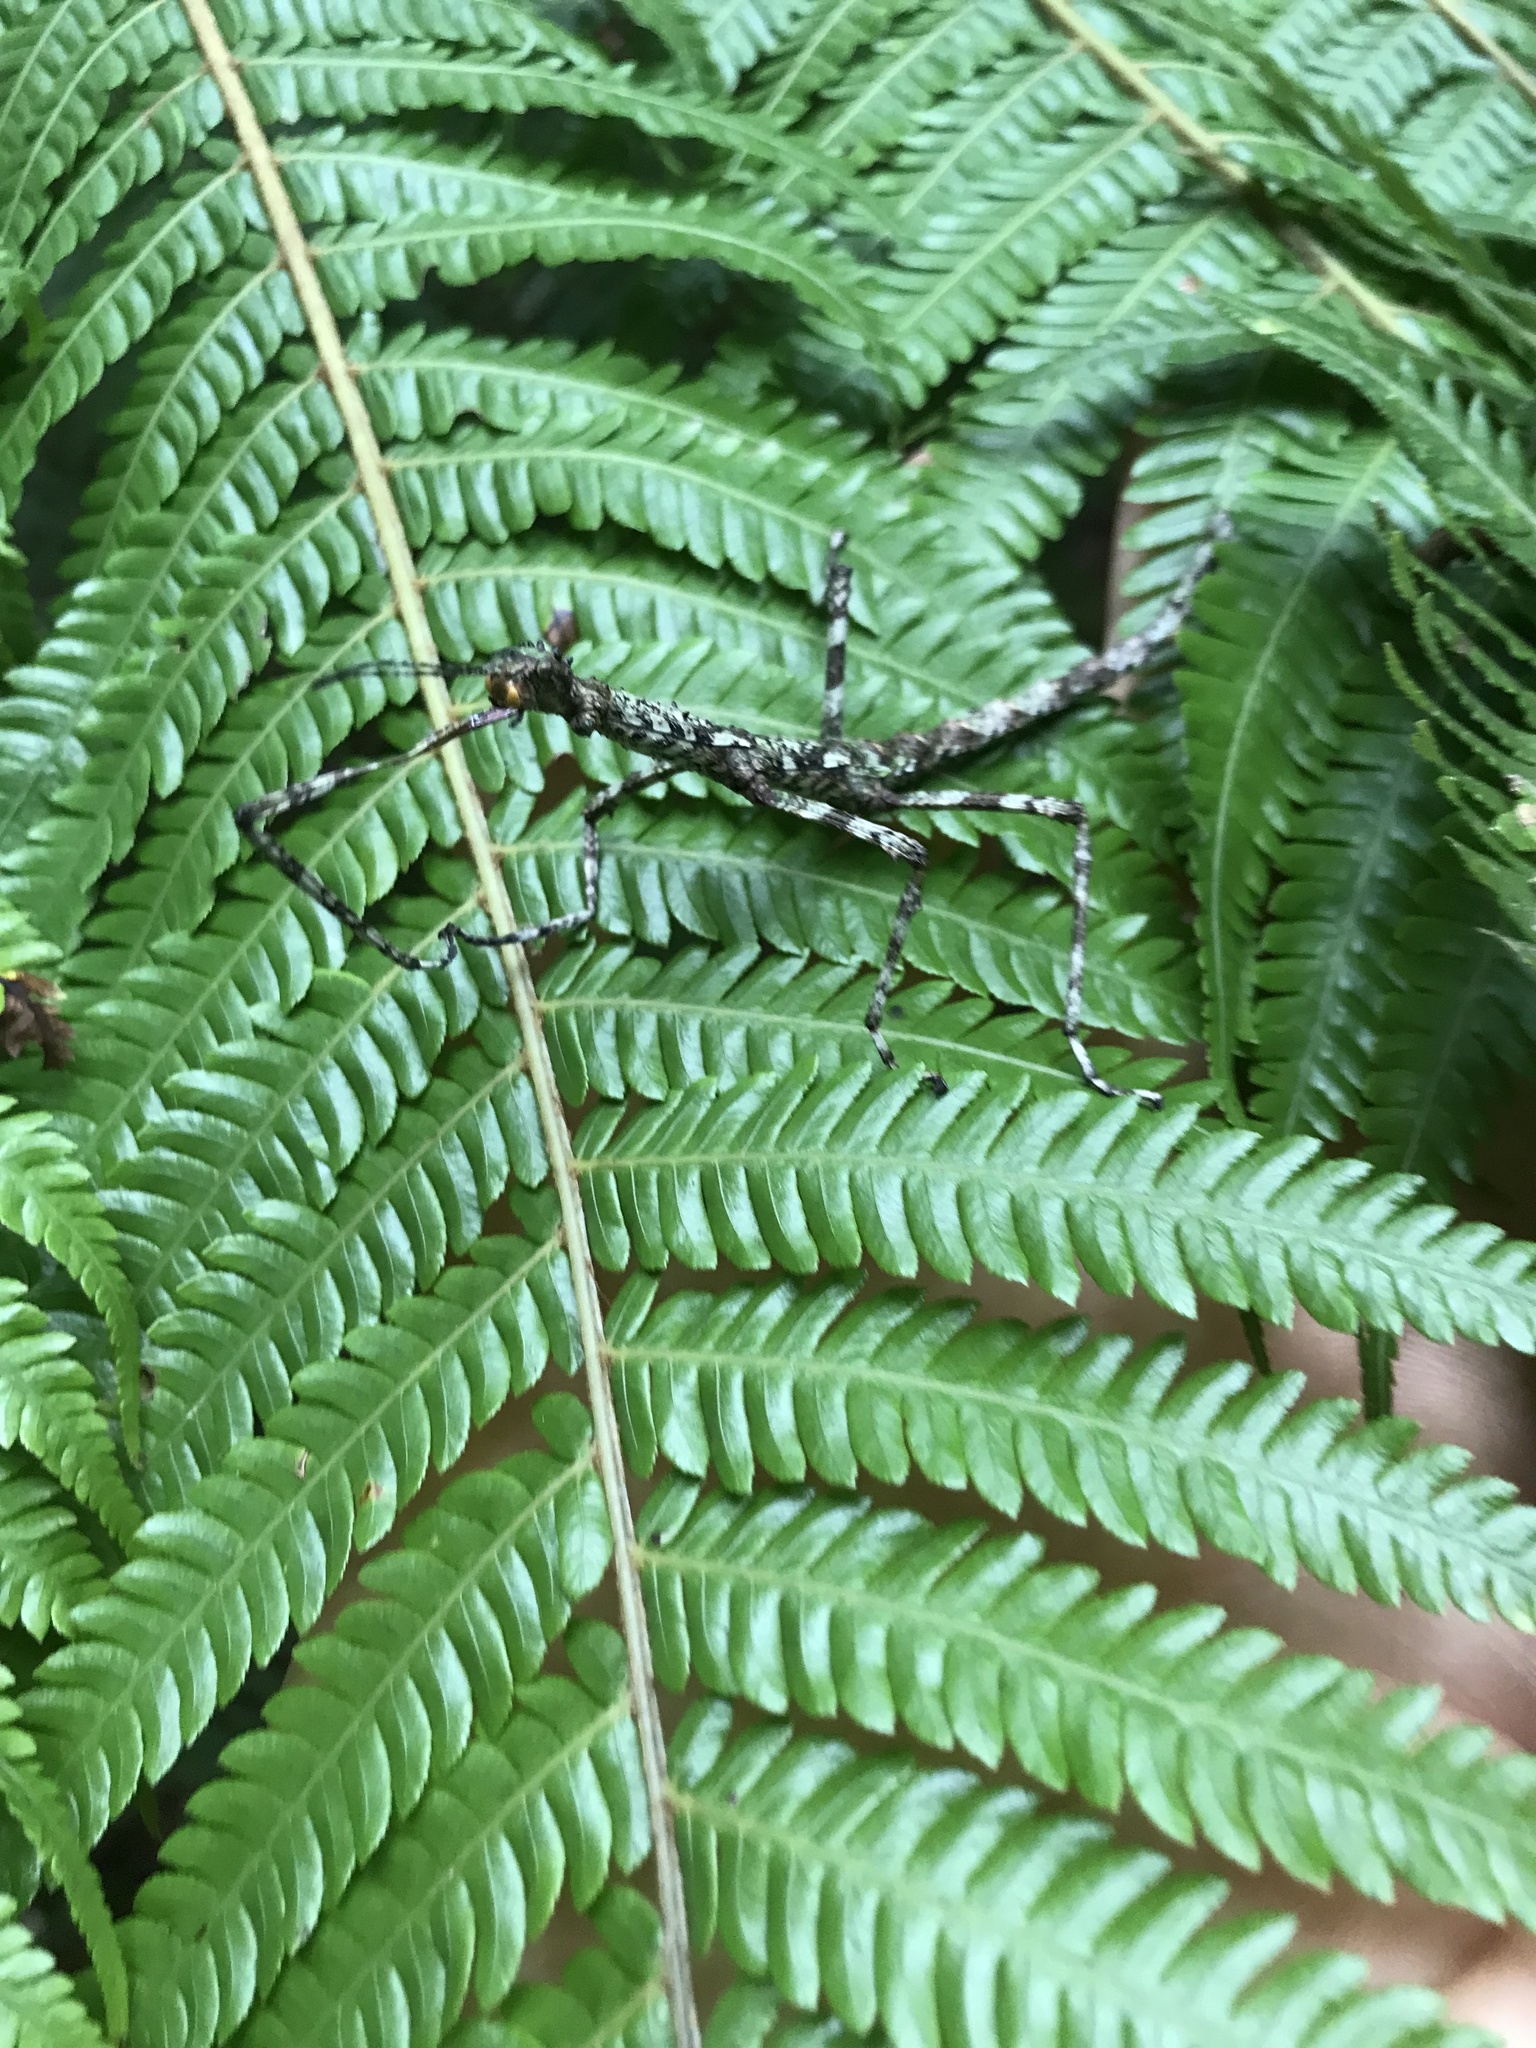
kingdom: Animalia
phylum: Arthropoda
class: Insecta
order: Phasmida
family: Phasmatidae
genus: Acanthoxyla
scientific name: Acanthoxyla prasina
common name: Black-spined stick insect
